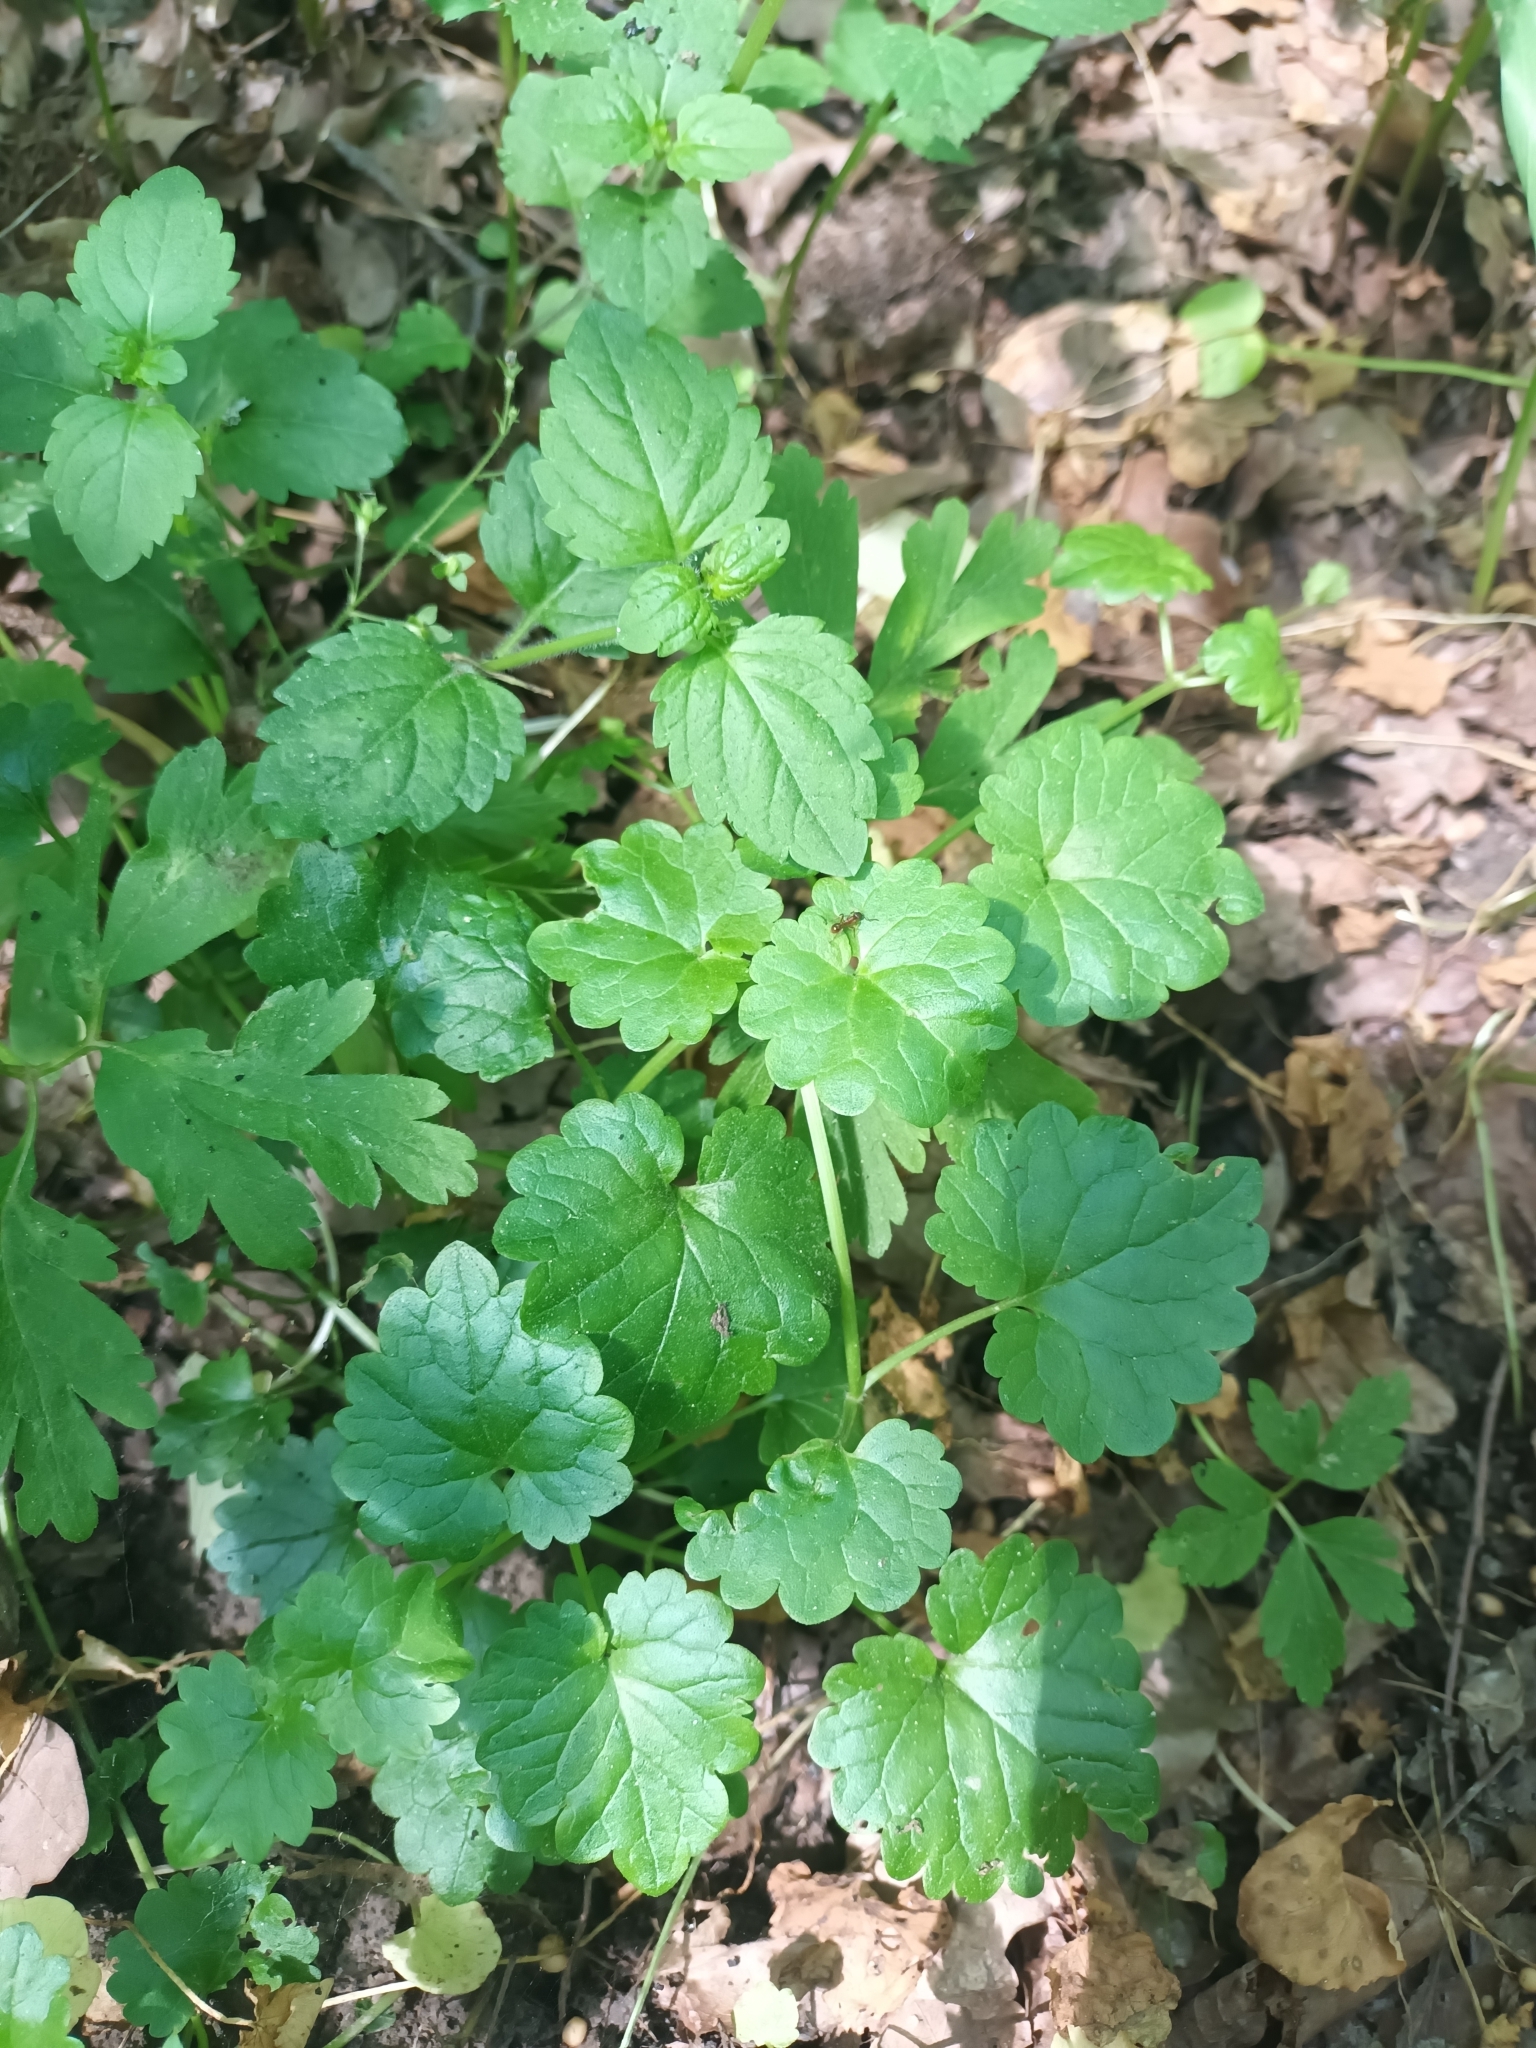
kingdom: Plantae
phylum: Tracheophyta
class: Magnoliopsida
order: Lamiales
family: Lamiaceae
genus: Glechoma
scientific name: Glechoma hederacea
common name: Ground ivy
